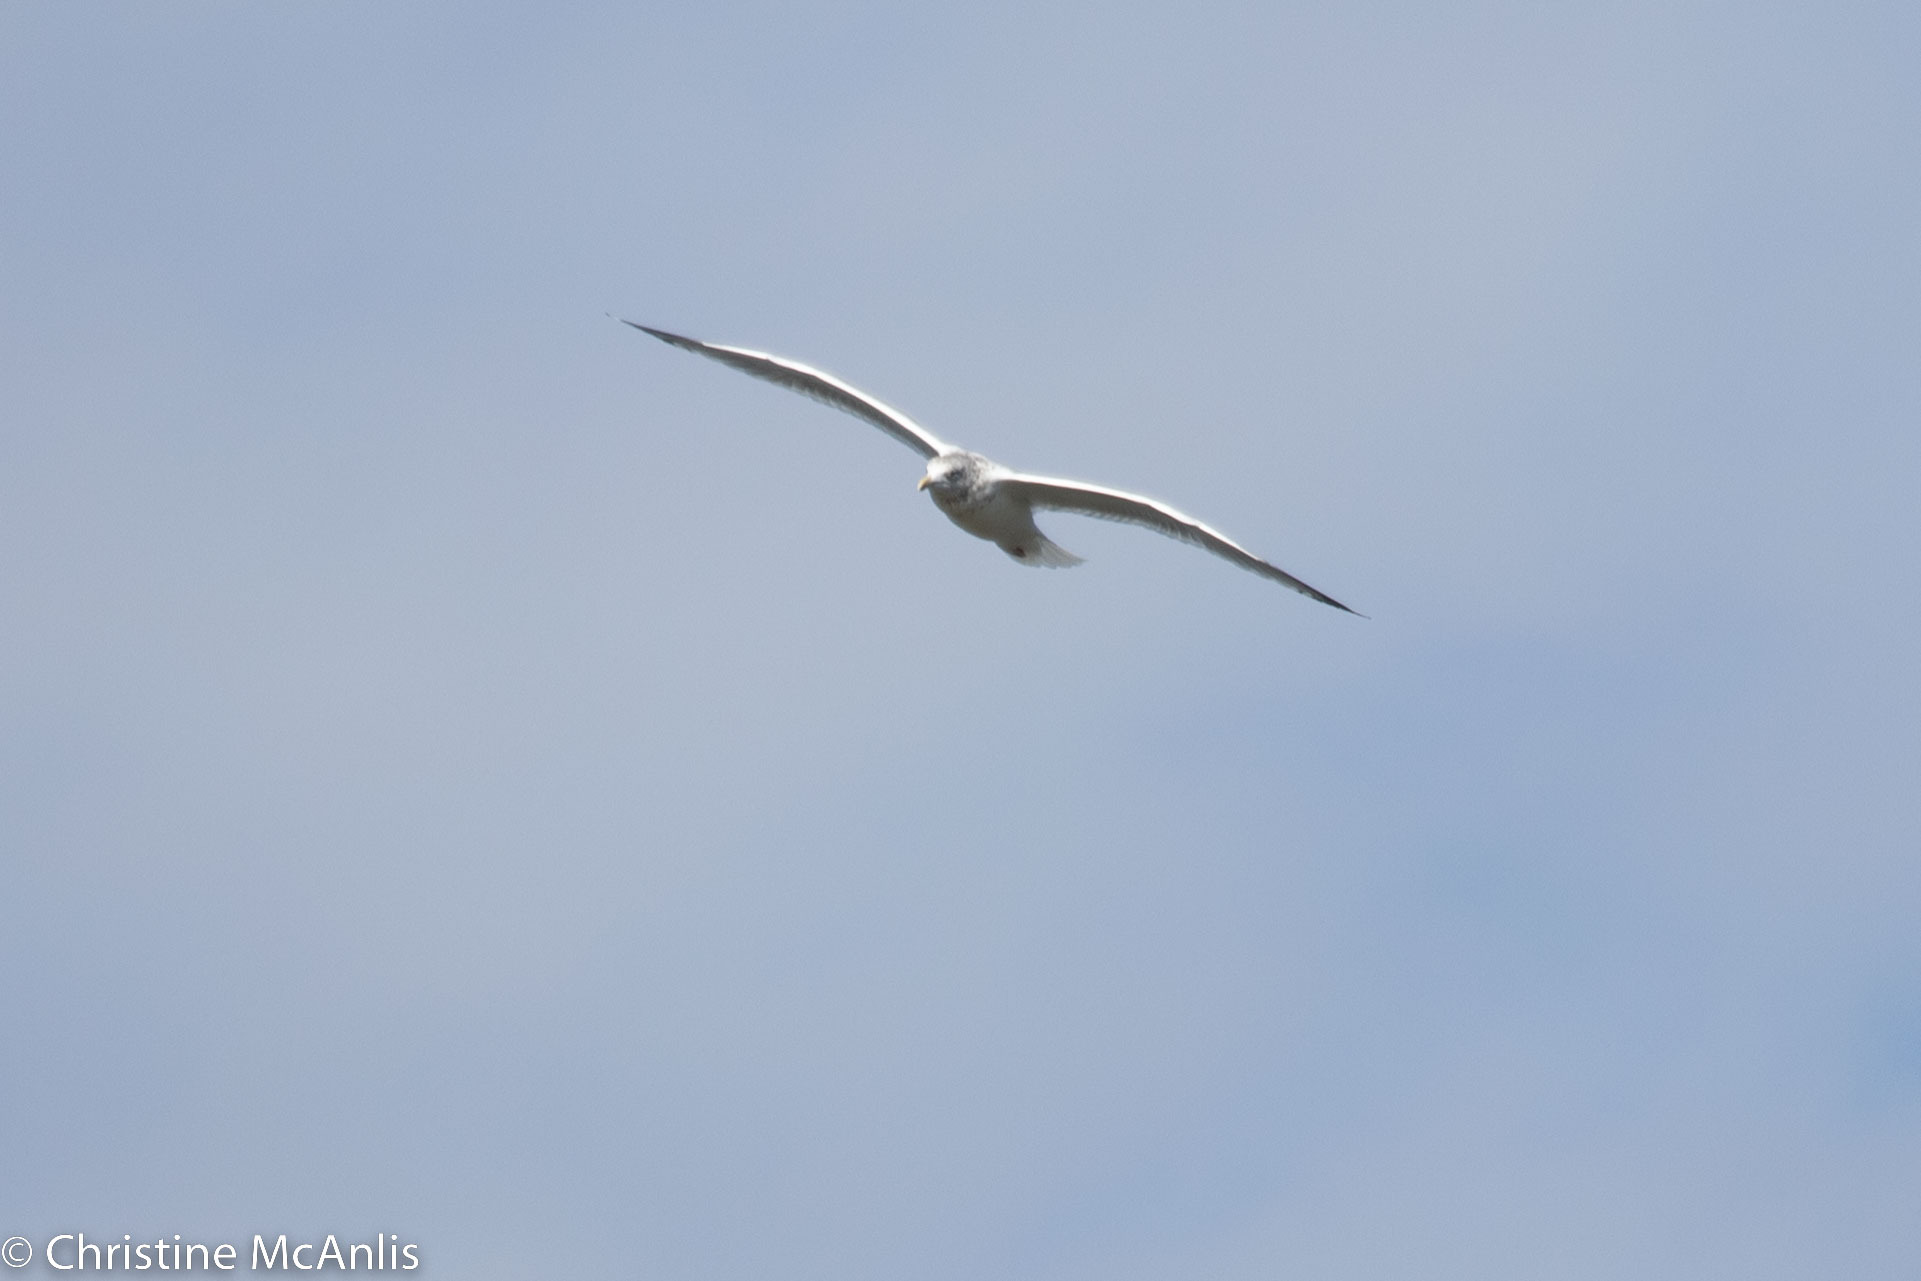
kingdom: Animalia
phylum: Chordata
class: Aves
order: Charadriiformes
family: Laridae
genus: Larus
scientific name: Larus argentatus
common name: Herring gull
